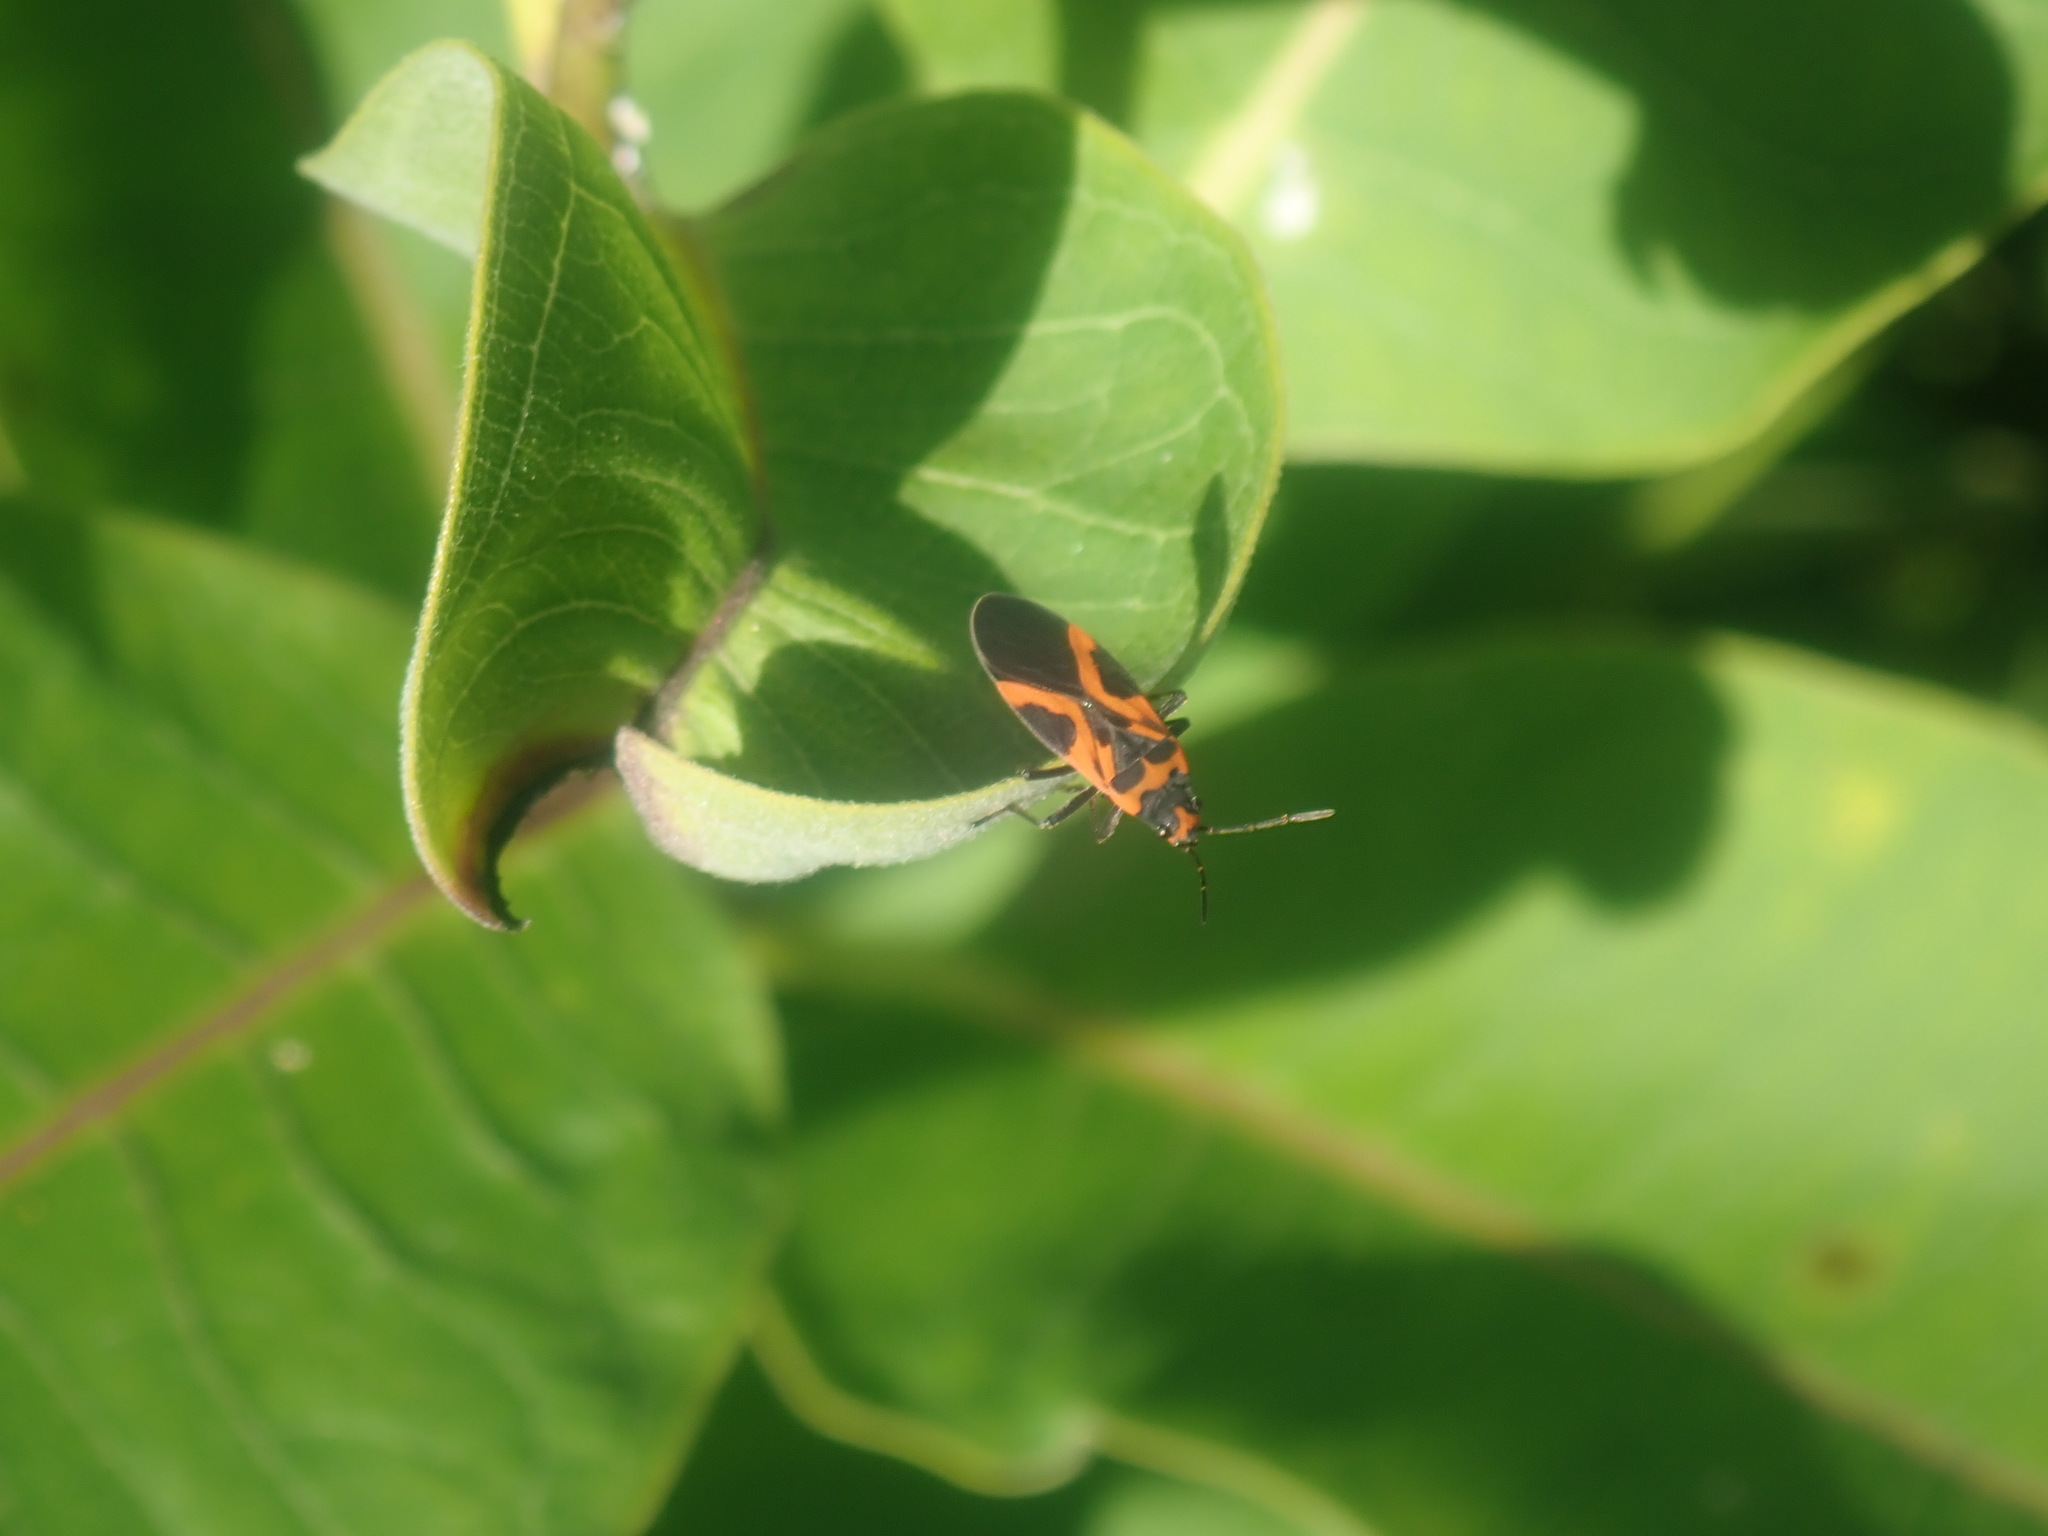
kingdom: Animalia
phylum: Arthropoda
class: Insecta
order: Hemiptera
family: Lygaeidae
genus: Lygaeus
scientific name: Lygaeus turcicus
